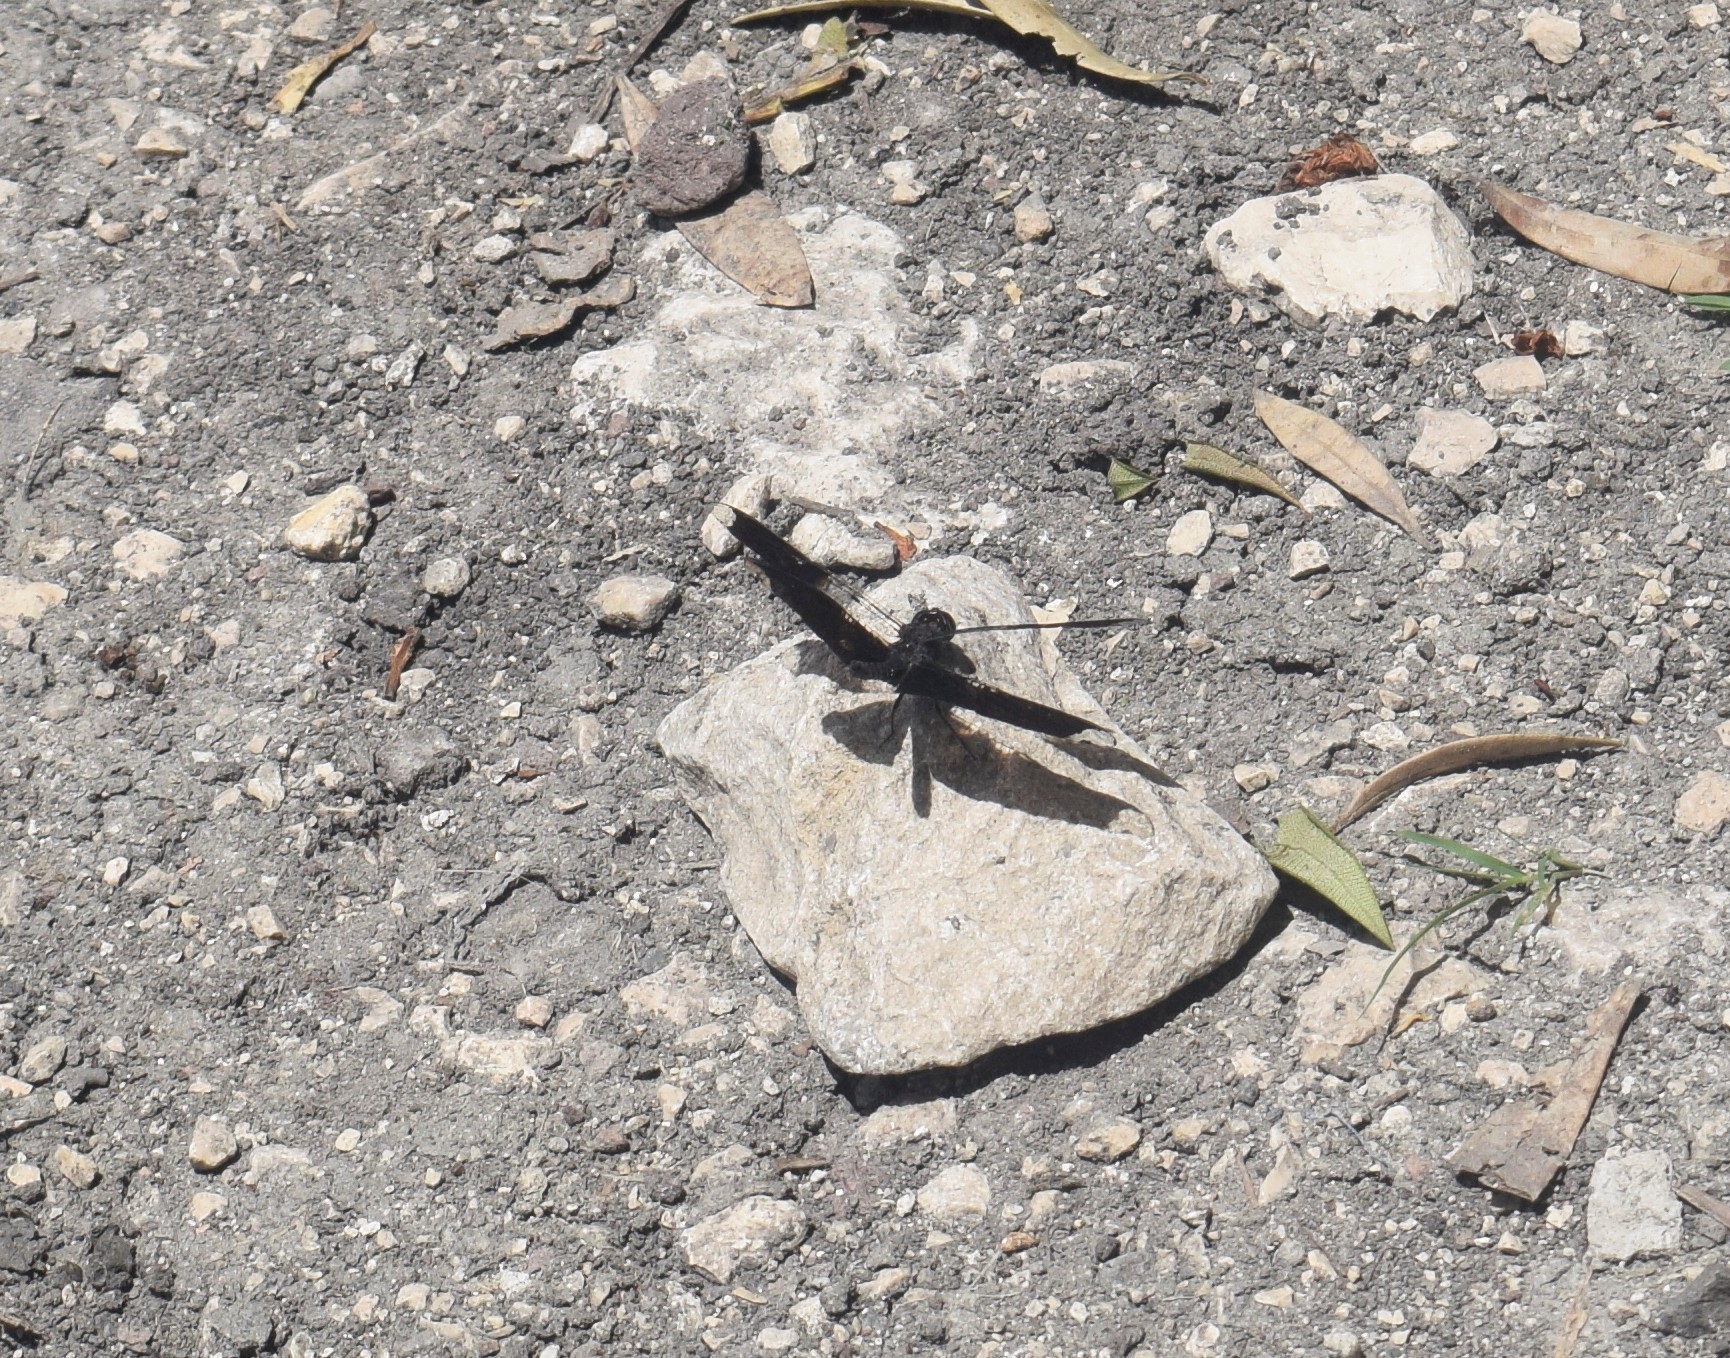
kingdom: Animalia
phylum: Arthropoda
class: Insecta
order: Odonata
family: Libellulidae
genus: Pseudoleon
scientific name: Pseudoleon superbus
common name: Filigree skimmer
